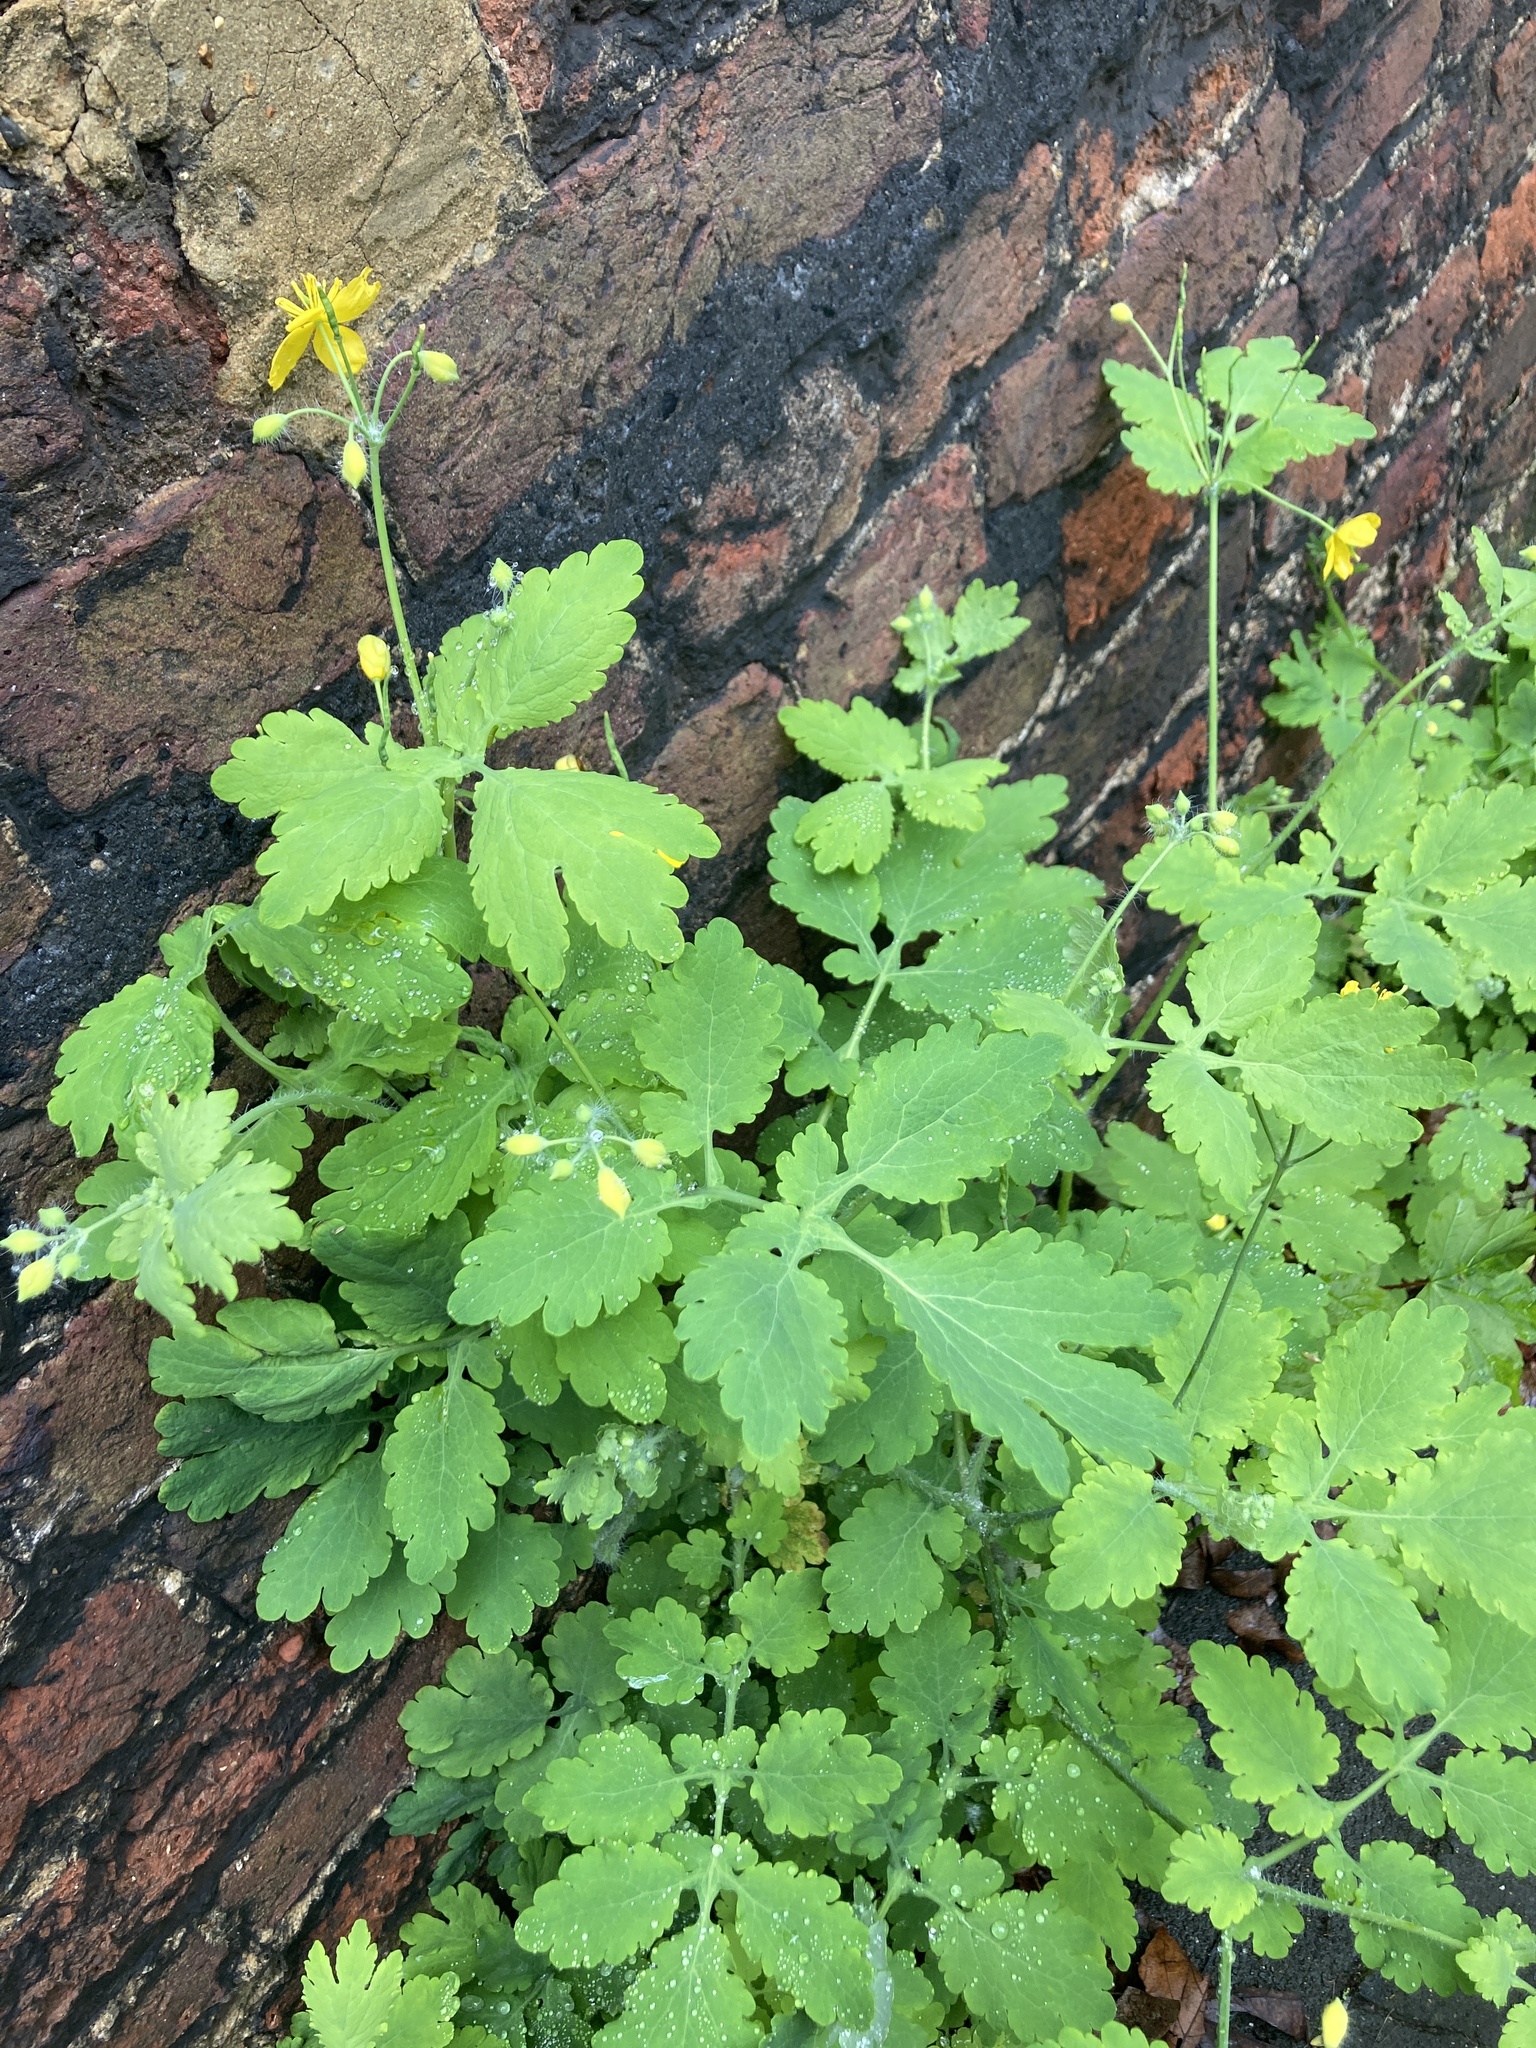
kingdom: Plantae
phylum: Tracheophyta
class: Magnoliopsida
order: Ranunculales
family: Papaveraceae
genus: Chelidonium
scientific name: Chelidonium majus
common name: Greater celandine
